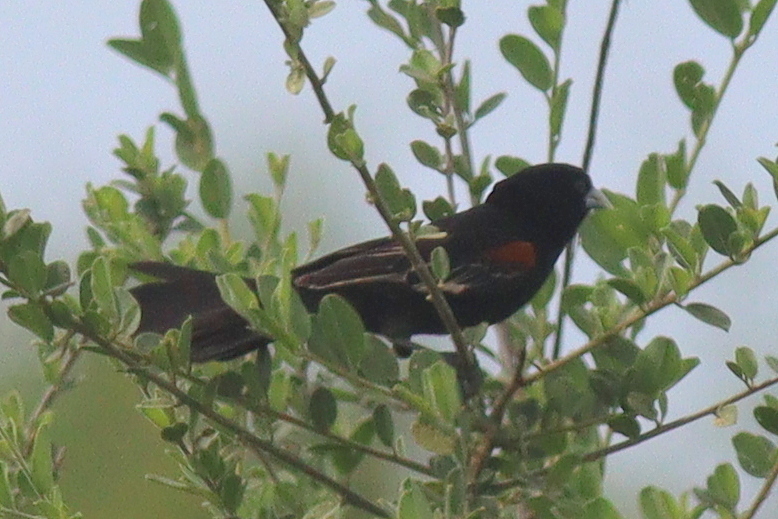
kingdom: Animalia
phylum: Chordata
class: Aves
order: Passeriformes
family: Ploceidae
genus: Euplectes
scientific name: Euplectes albonotatus
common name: White-winged widowbird
